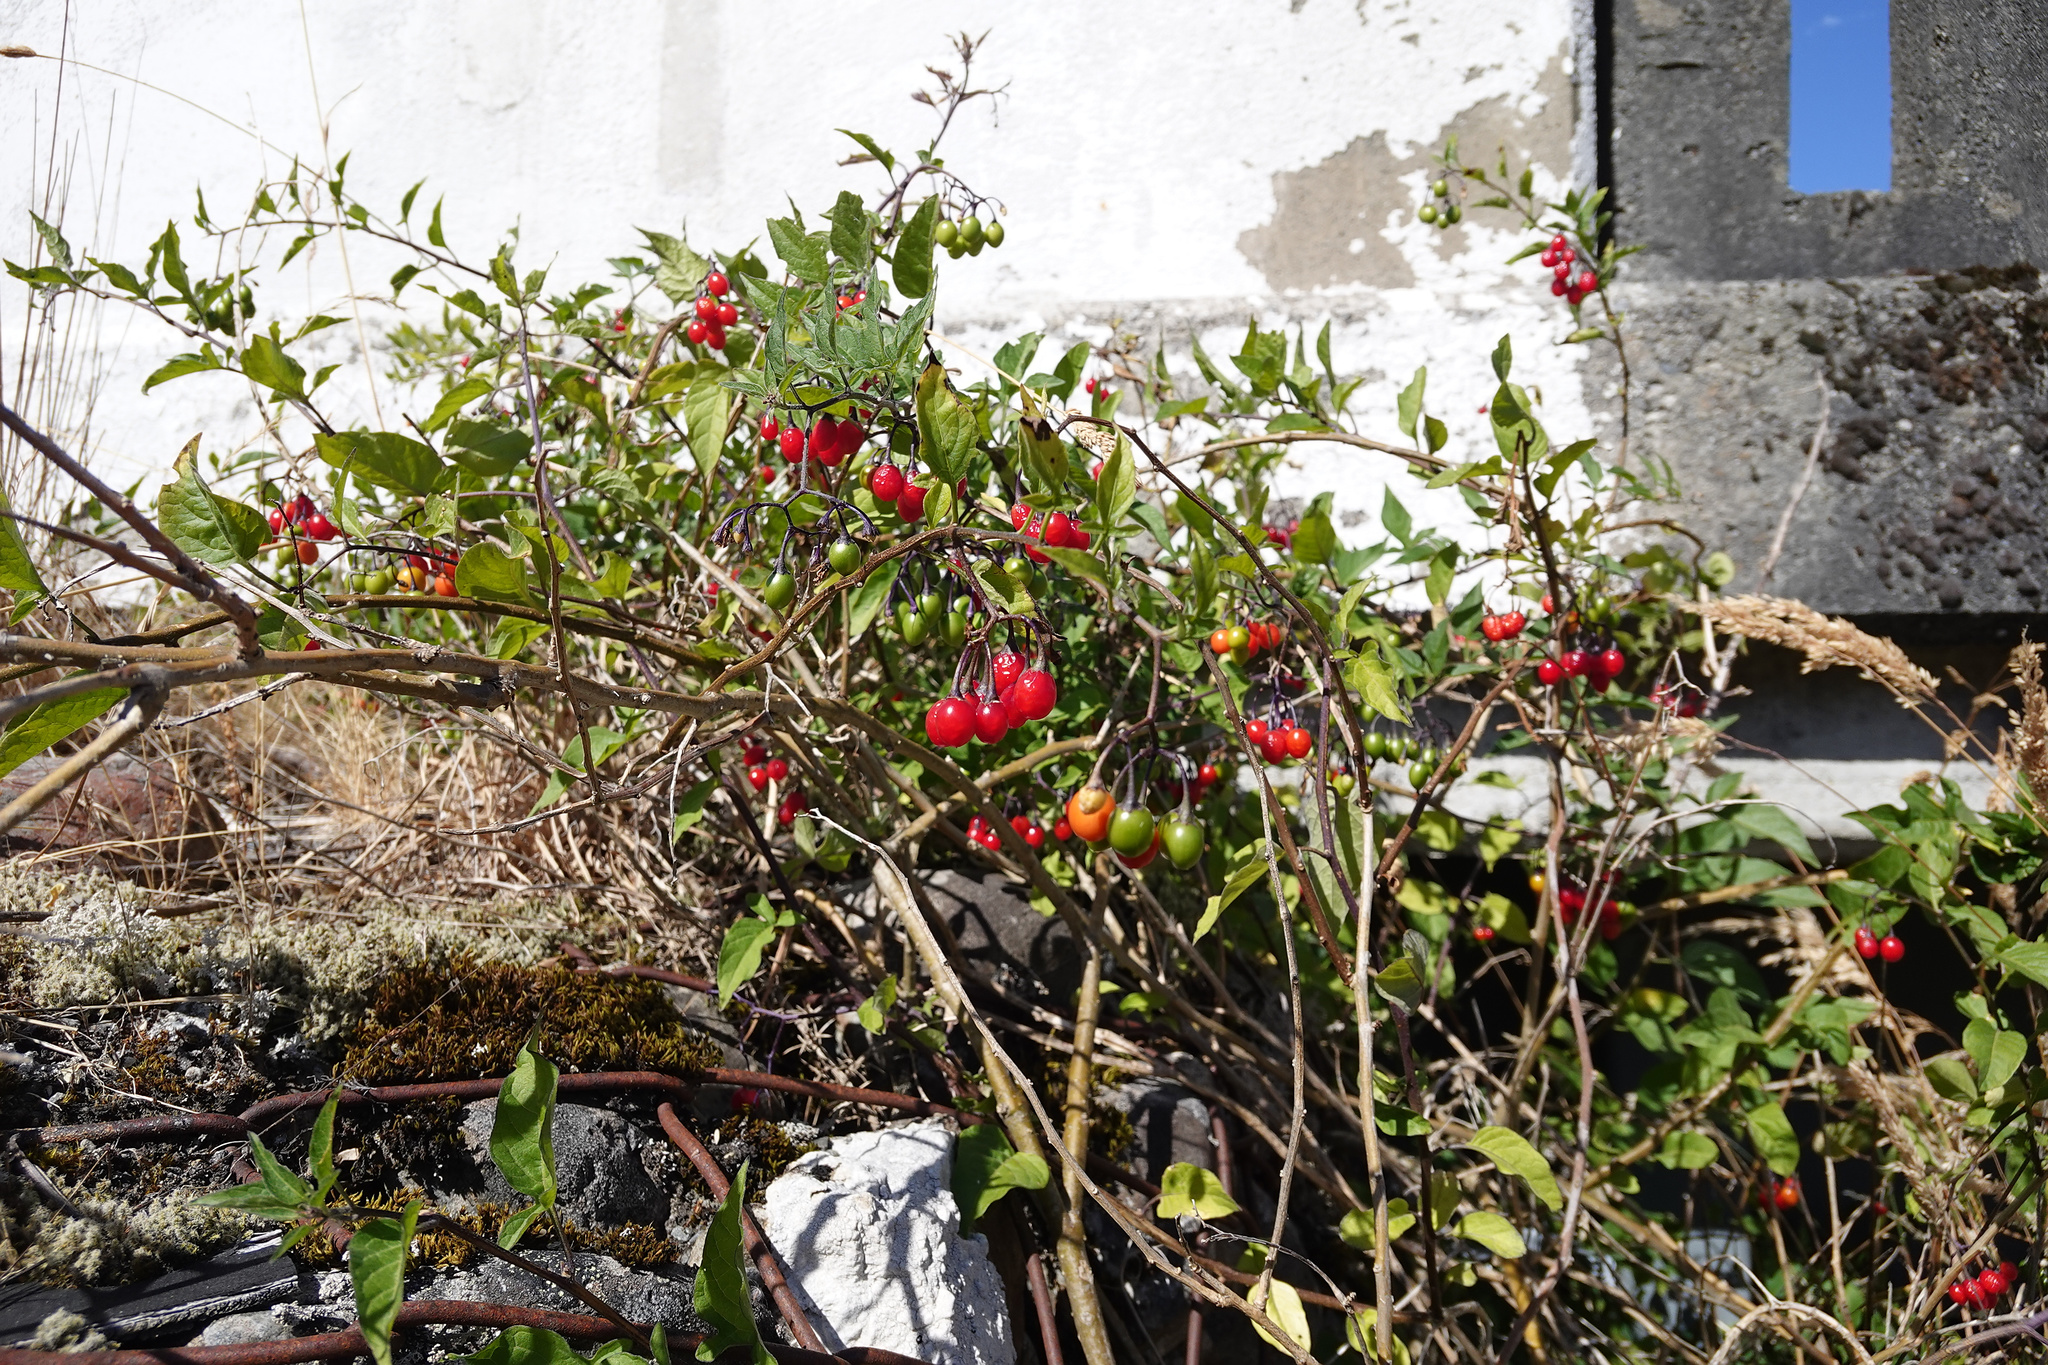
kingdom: Plantae
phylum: Tracheophyta
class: Magnoliopsida
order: Solanales
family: Solanaceae
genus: Solanum
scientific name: Solanum dulcamara
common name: Climbing nightshade
